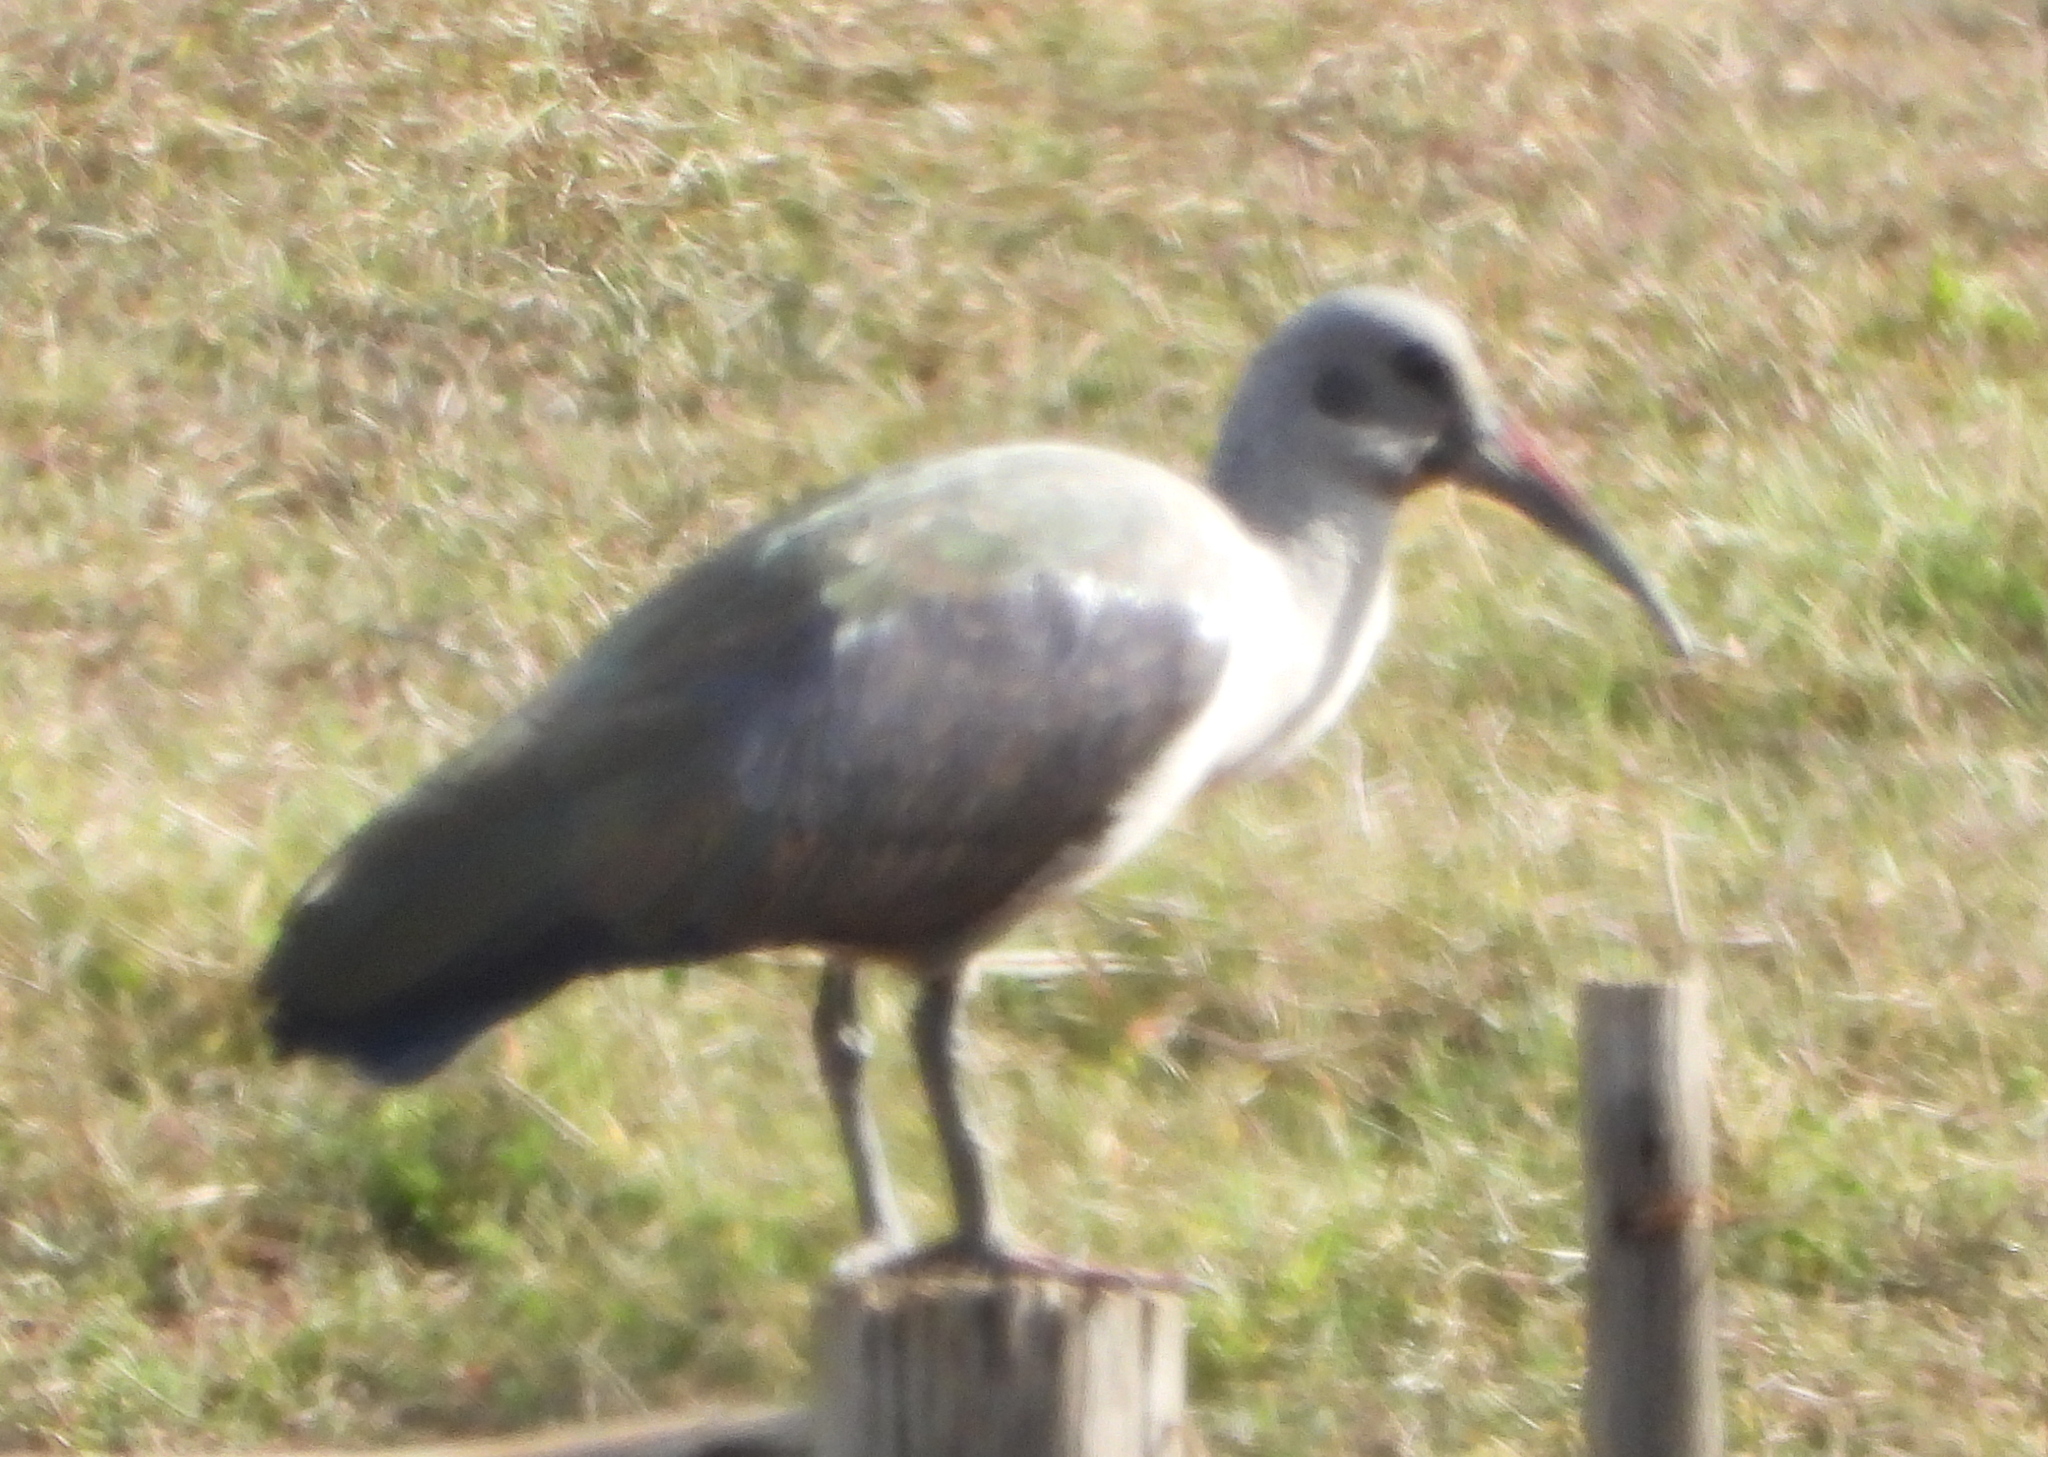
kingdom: Animalia
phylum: Chordata
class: Aves
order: Pelecaniformes
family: Threskiornithidae
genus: Bostrychia
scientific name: Bostrychia hagedash
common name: Hadada ibis
